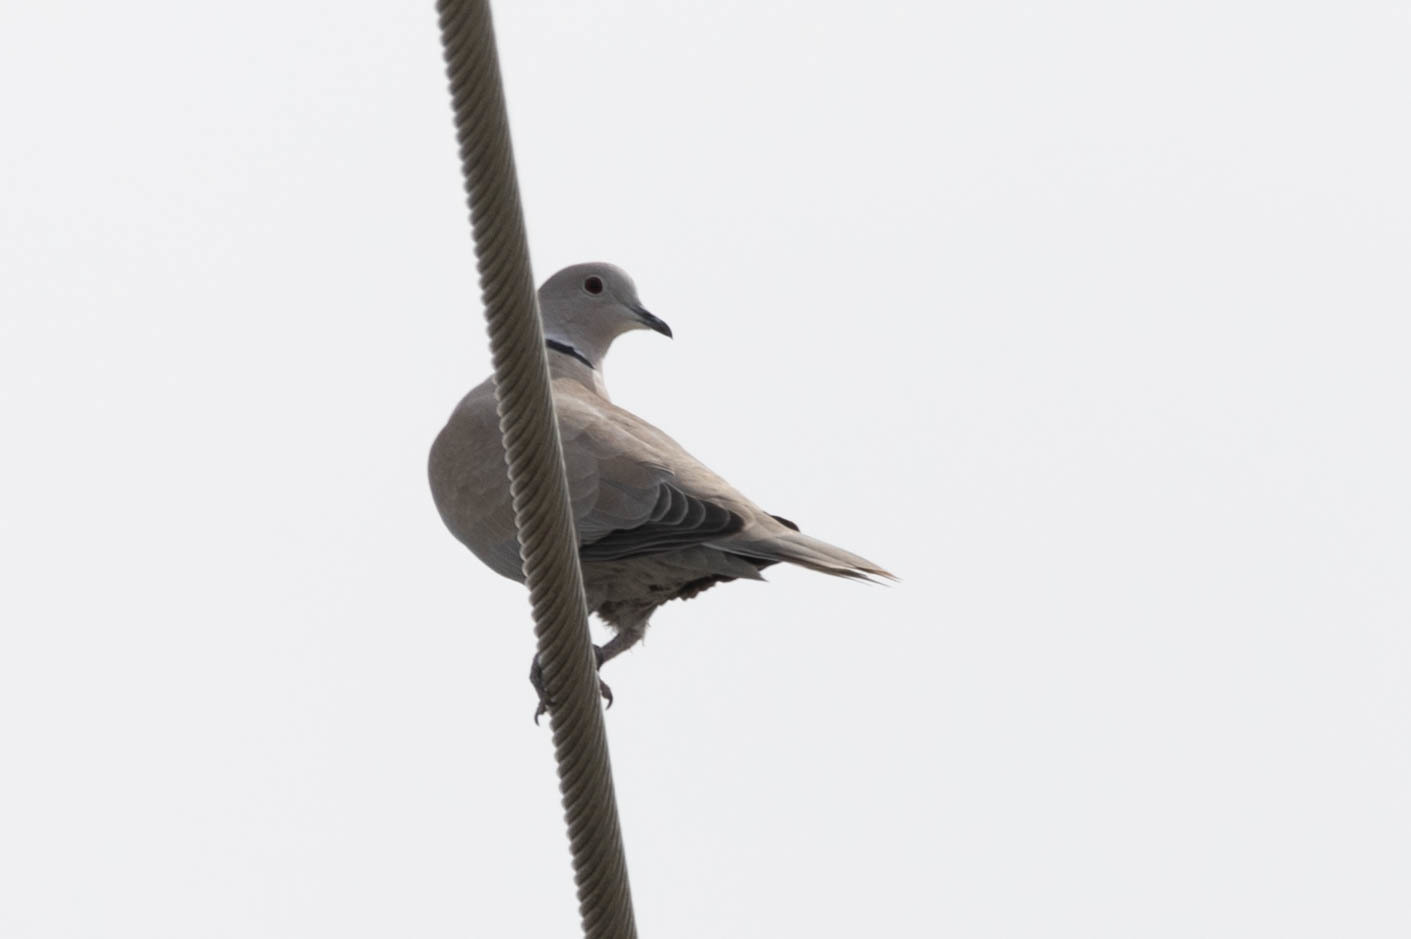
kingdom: Animalia
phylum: Chordata
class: Aves
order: Columbiformes
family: Columbidae
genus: Streptopelia
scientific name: Streptopelia decaocto
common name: Eurasian collared dove
